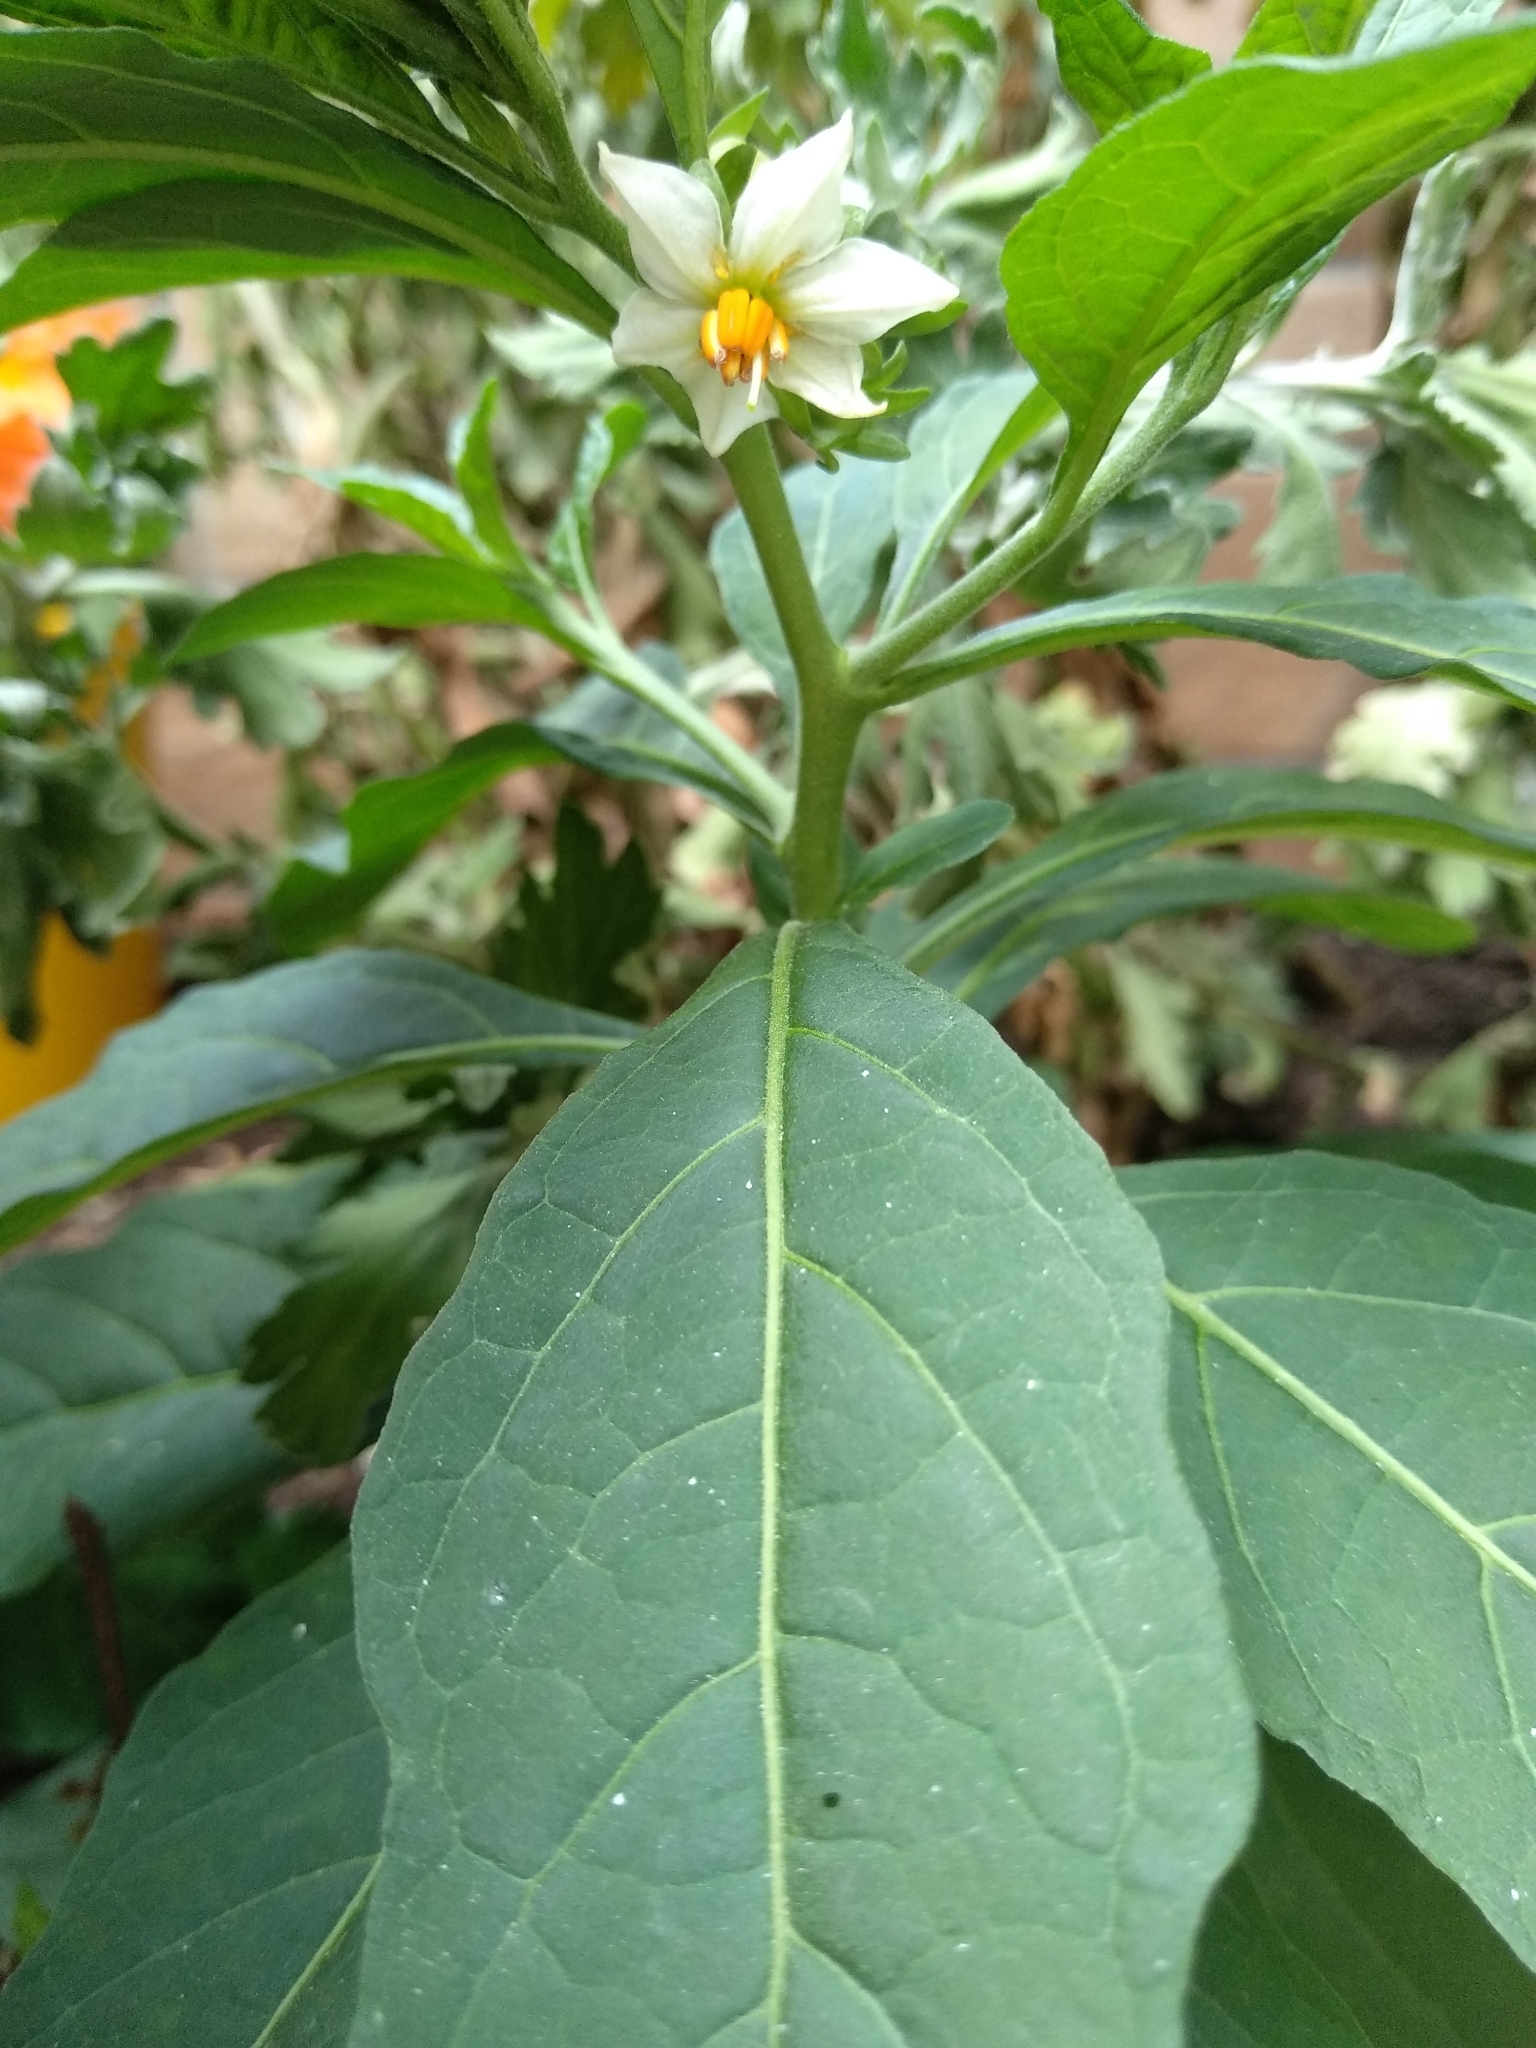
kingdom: Plantae
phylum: Tracheophyta
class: Magnoliopsida
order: Solanales
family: Solanaceae
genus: Solanum
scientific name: Solanum pseudocapsicum
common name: Jerusalem cherry
